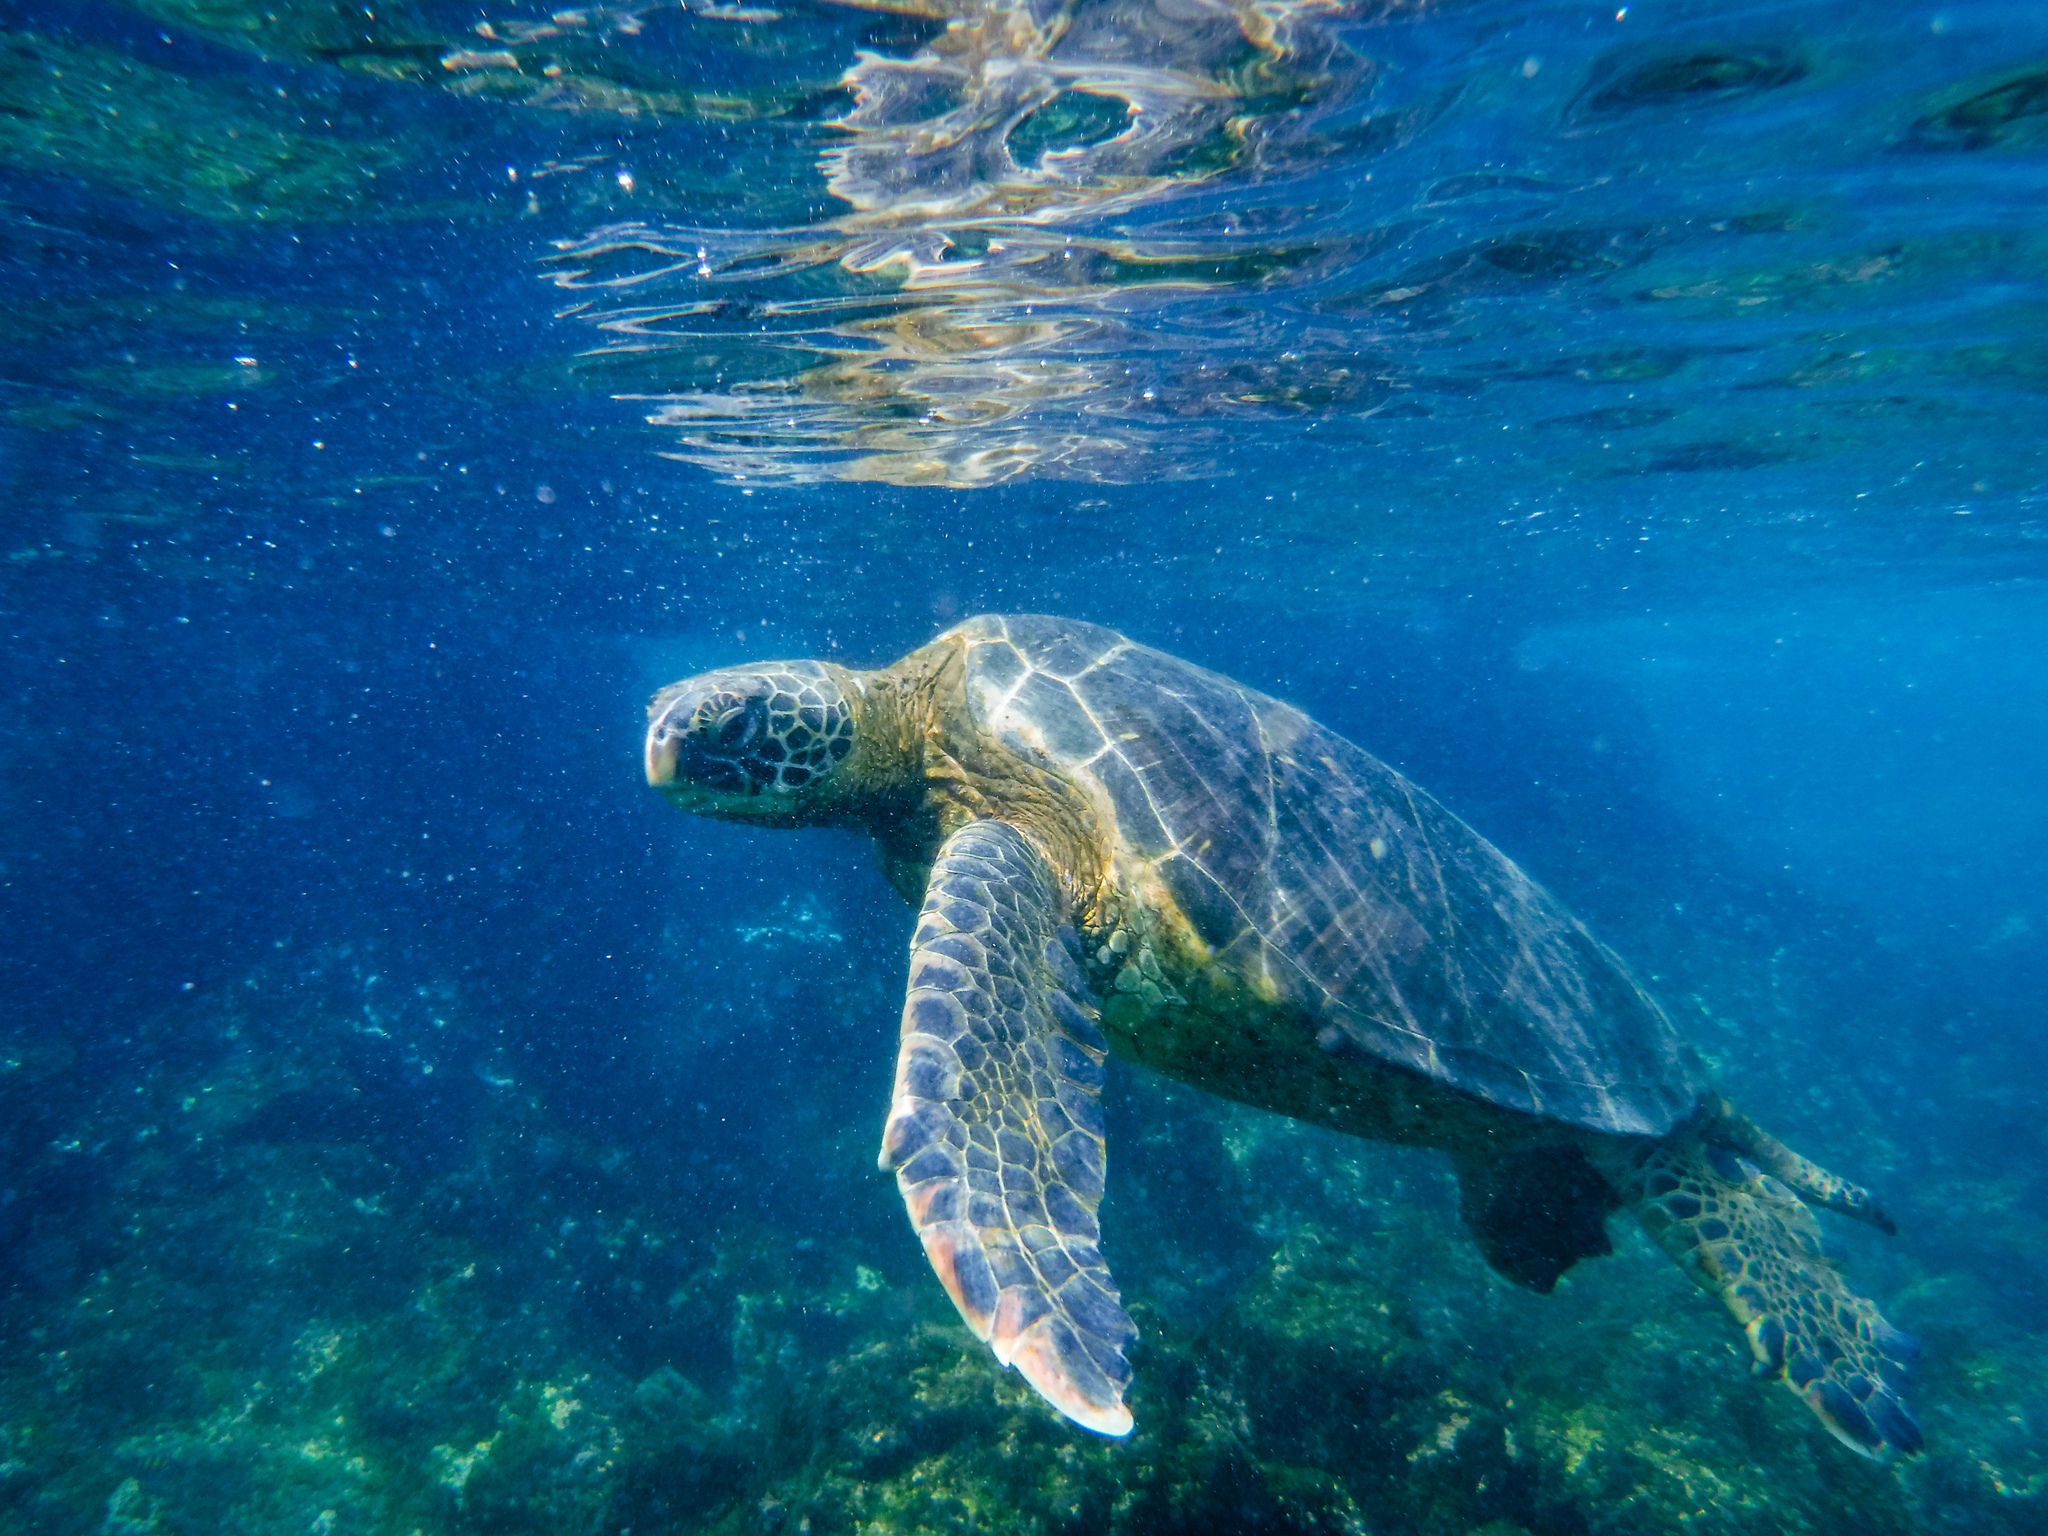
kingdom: Animalia
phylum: Chordata
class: Testudines
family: Cheloniidae
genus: Chelonia
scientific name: Chelonia mydas
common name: Green turtle
